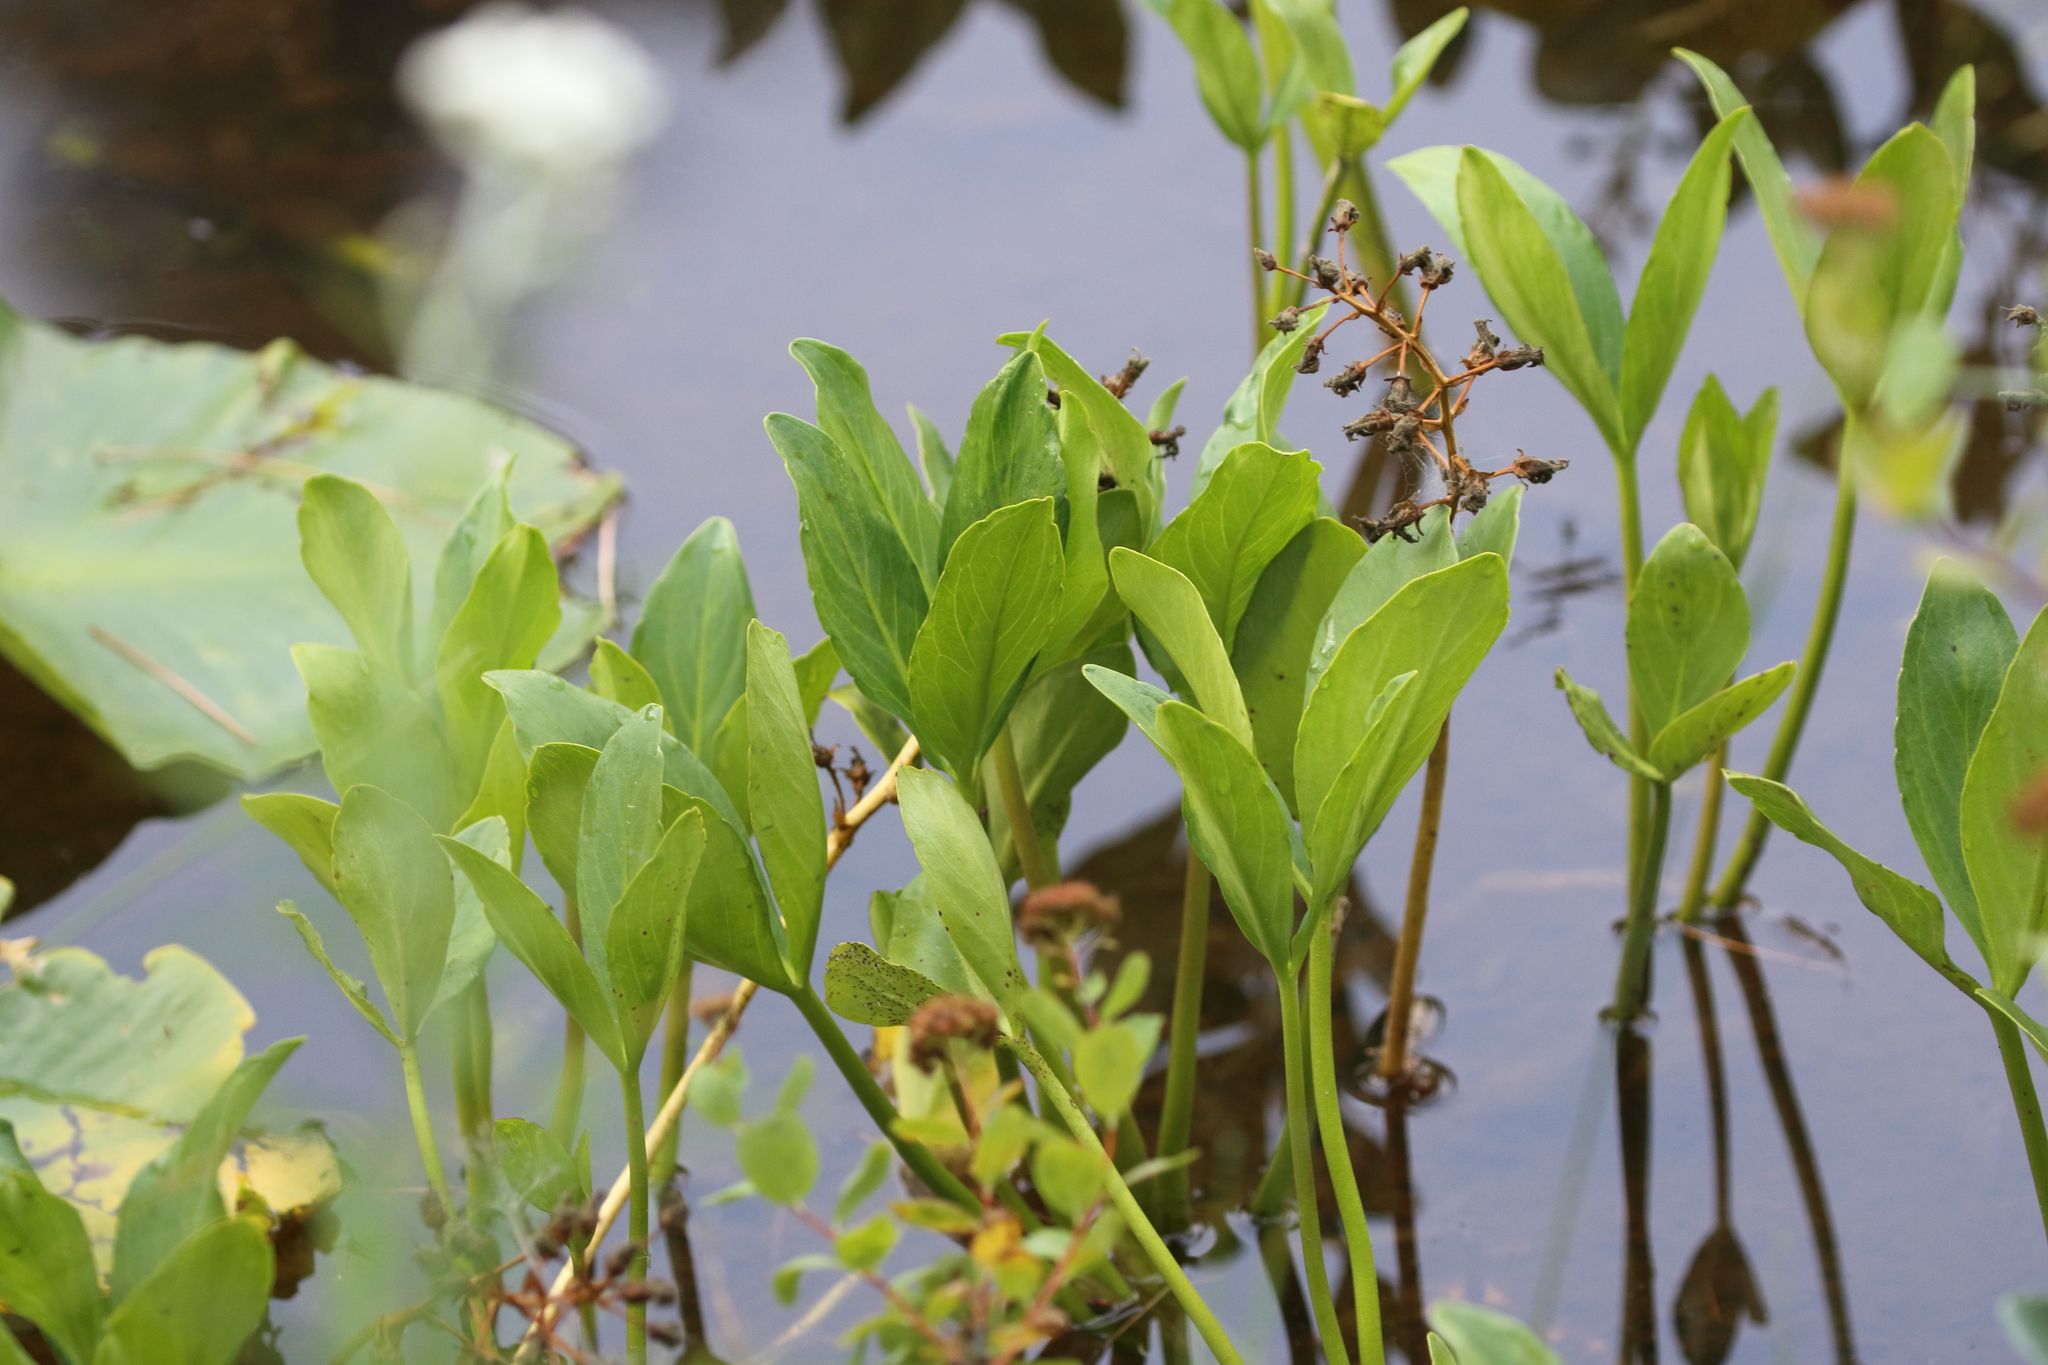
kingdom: Plantae
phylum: Tracheophyta
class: Magnoliopsida
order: Asterales
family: Menyanthaceae
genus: Menyanthes
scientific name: Menyanthes trifoliata
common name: Bogbean
